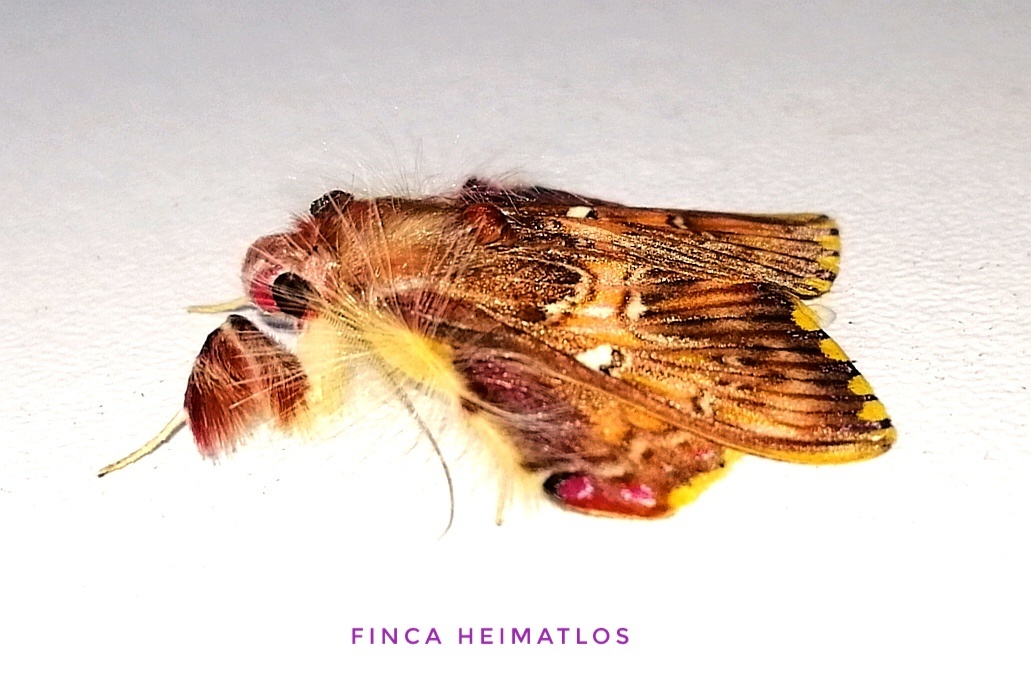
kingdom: Animalia
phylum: Arthropoda
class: Insecta
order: Lepidoptera
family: Erebidae
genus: Sosxetra
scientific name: Sosxetra grata
